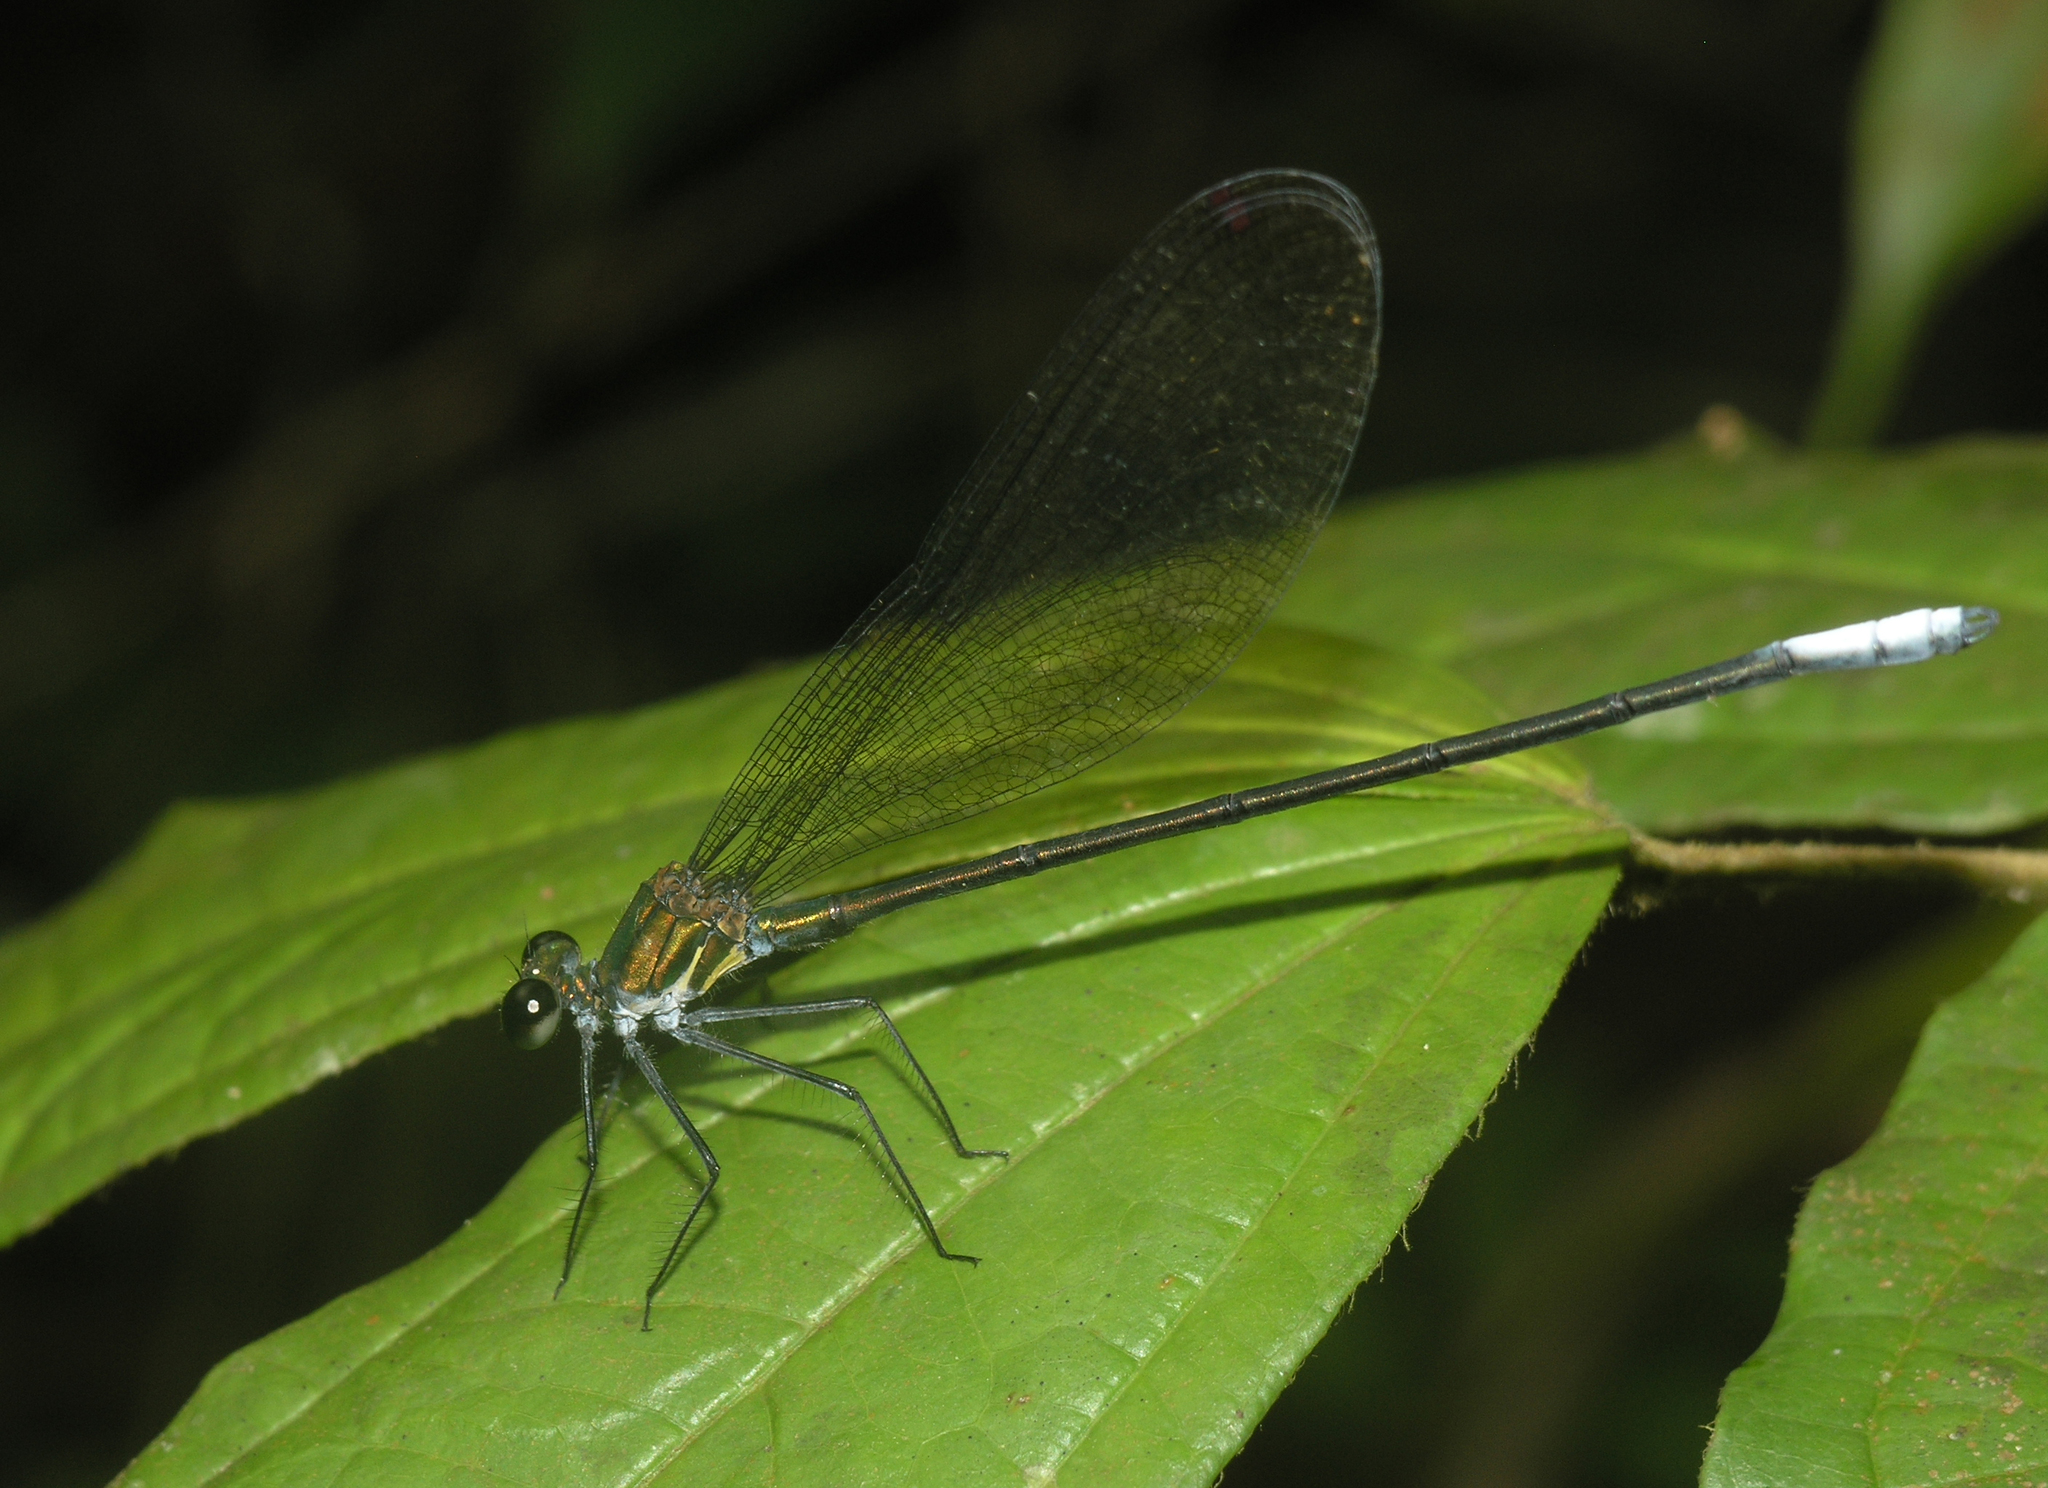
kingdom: Animalia
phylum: Arthropoda
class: Insecta
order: Odonata
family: Calopterygidae
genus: Mnais
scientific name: Mnais mneme
